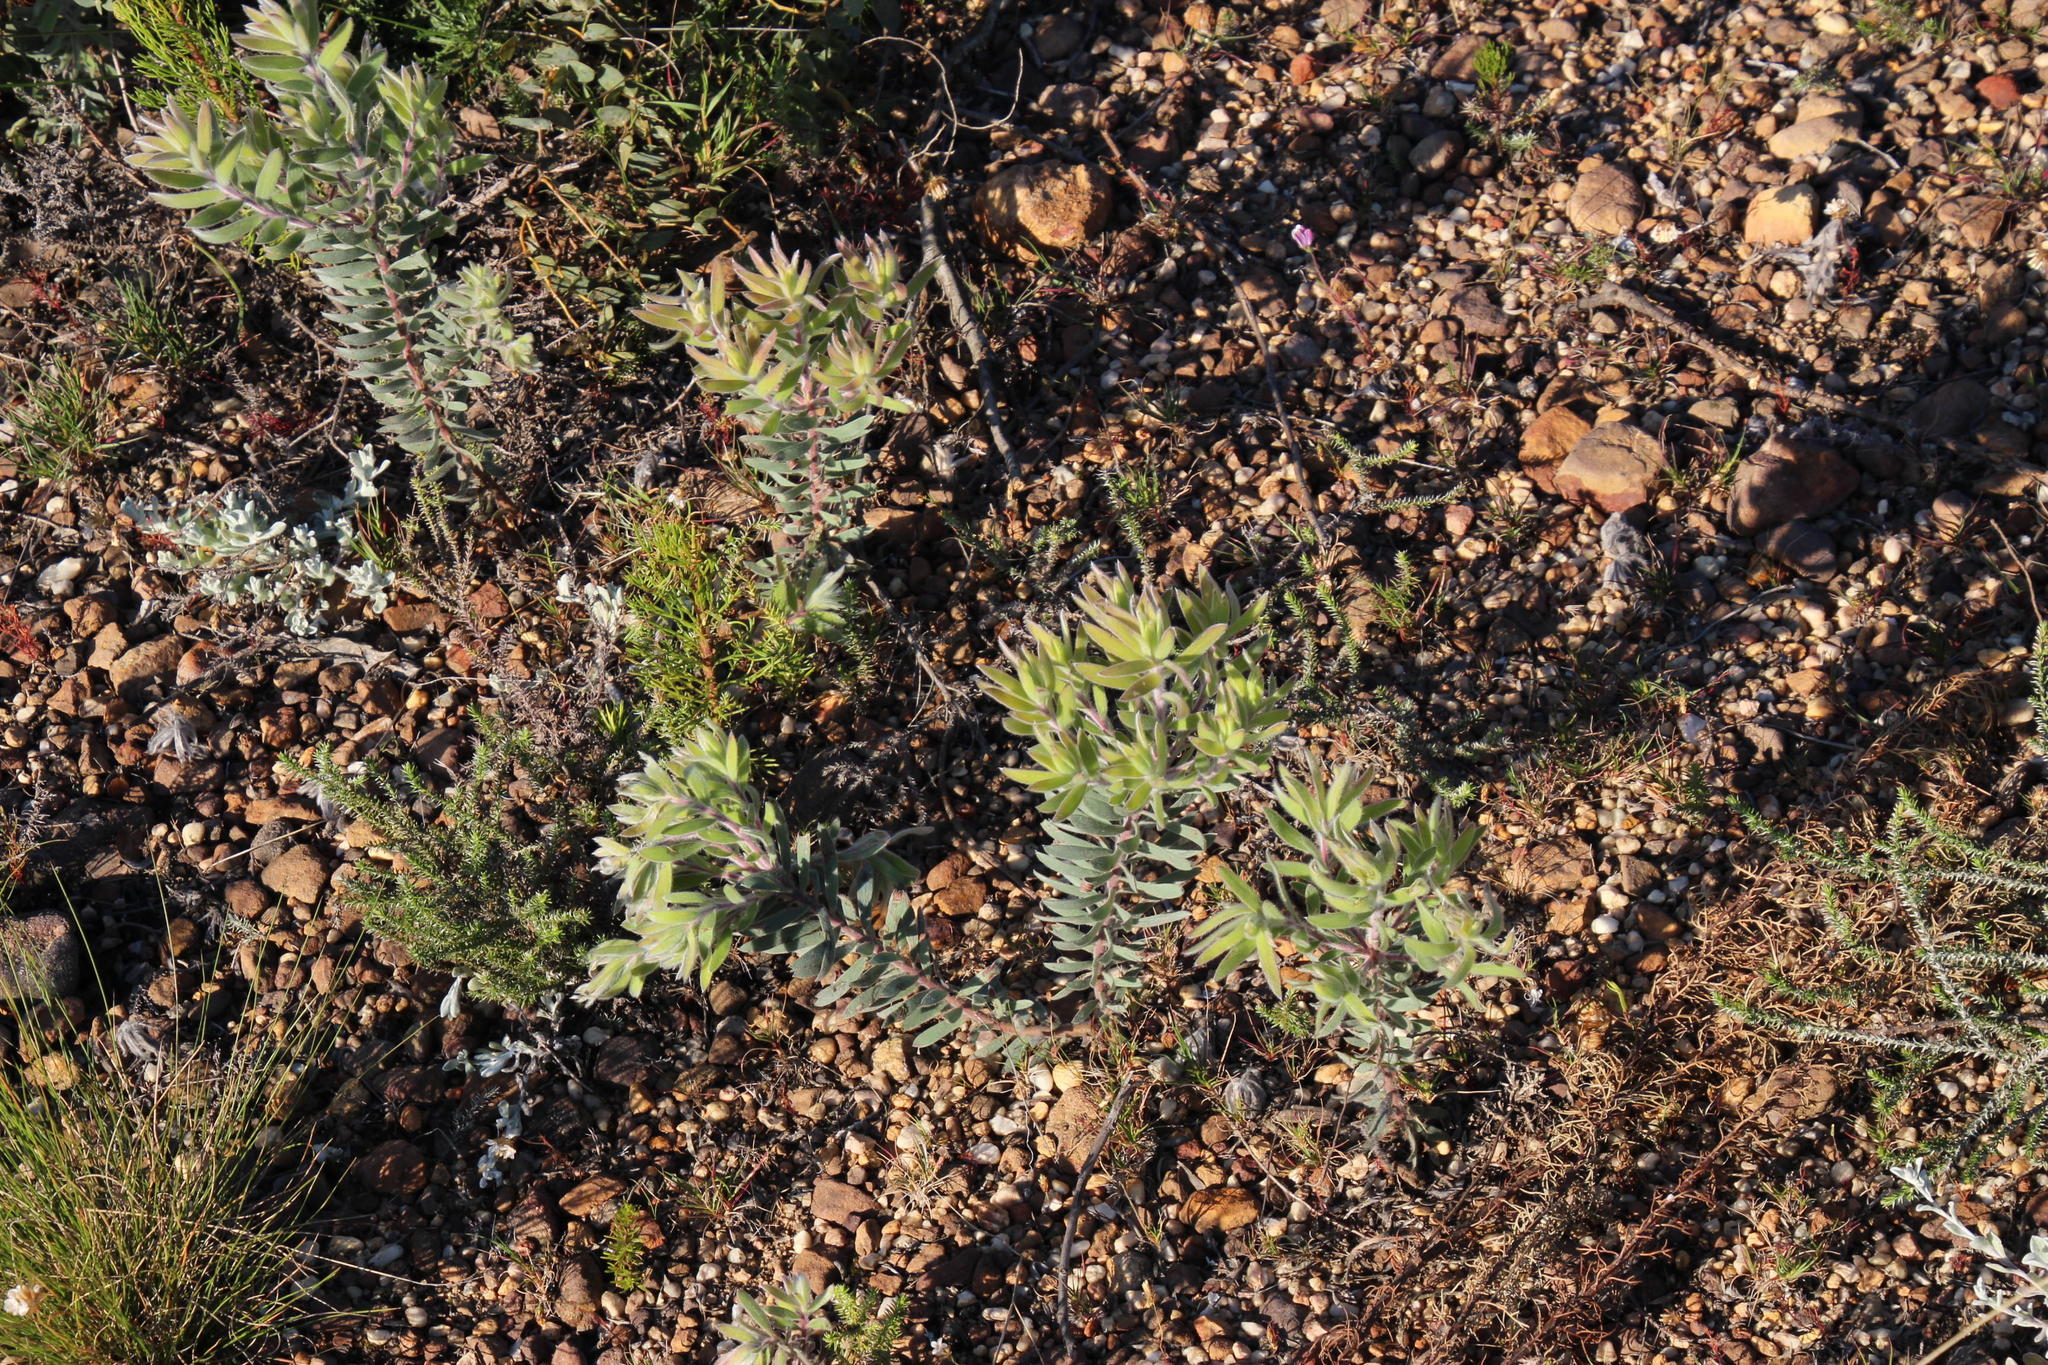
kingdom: Plantae
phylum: Tracheophyta
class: Magnoliopsida
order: Proteales
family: Proteaceae
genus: Leucadendron
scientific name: Leucadendron rubrum
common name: Spinning top
